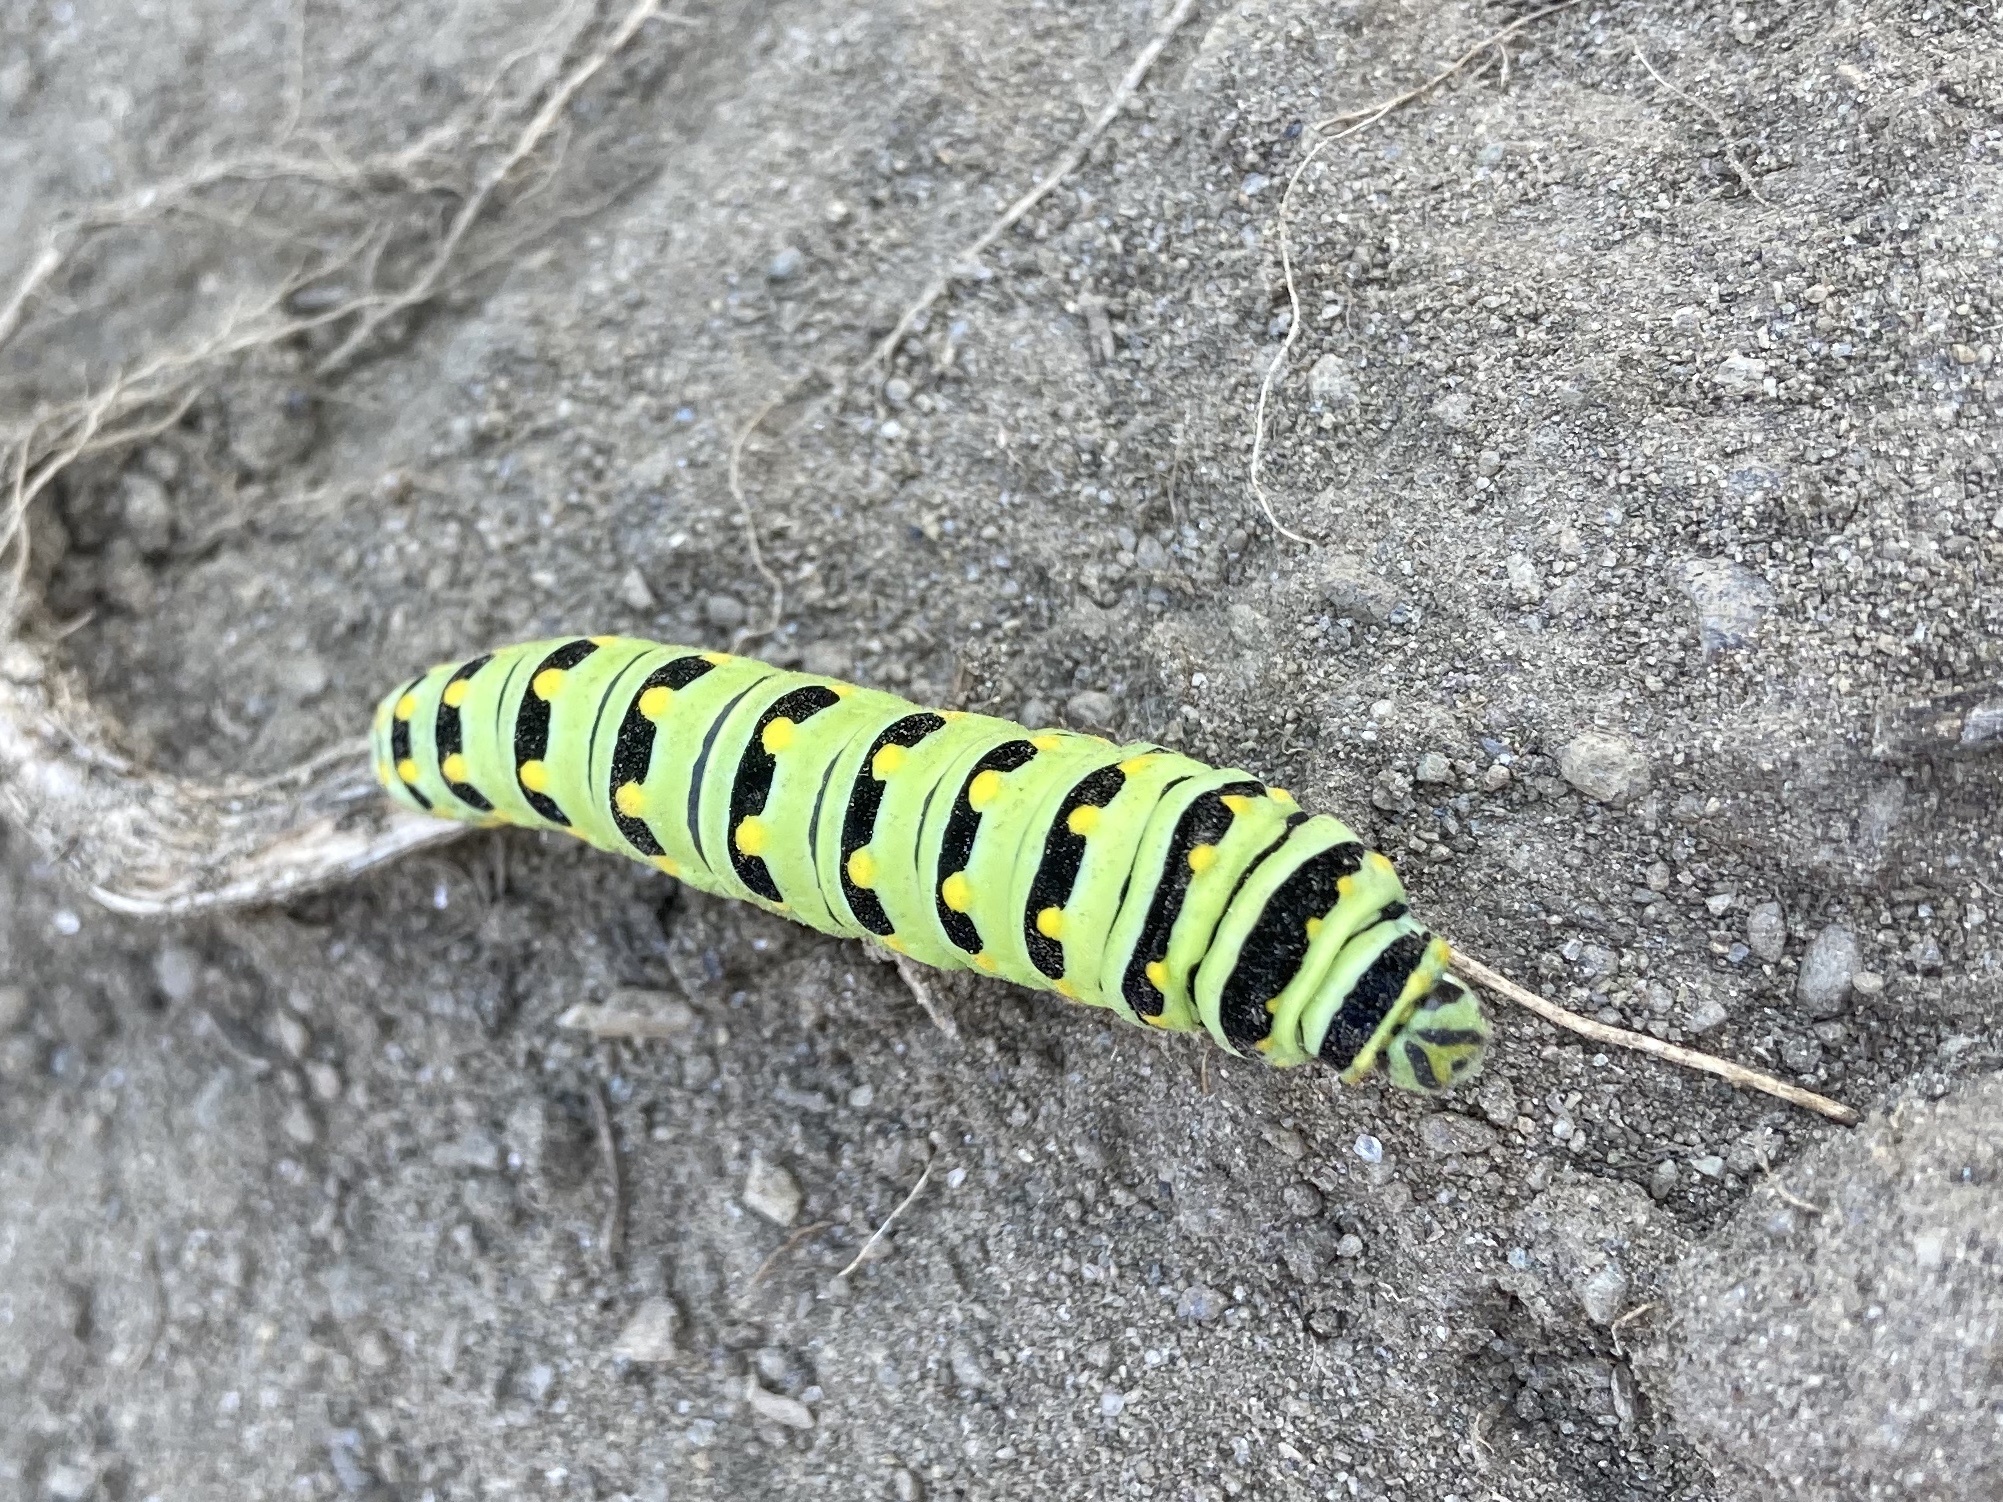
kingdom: Animalia
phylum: Arthropoda
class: Insecta
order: Lepidoptera
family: Papilionidae
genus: Papilio
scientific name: Papilio polyxenes
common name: Black swallowtail
